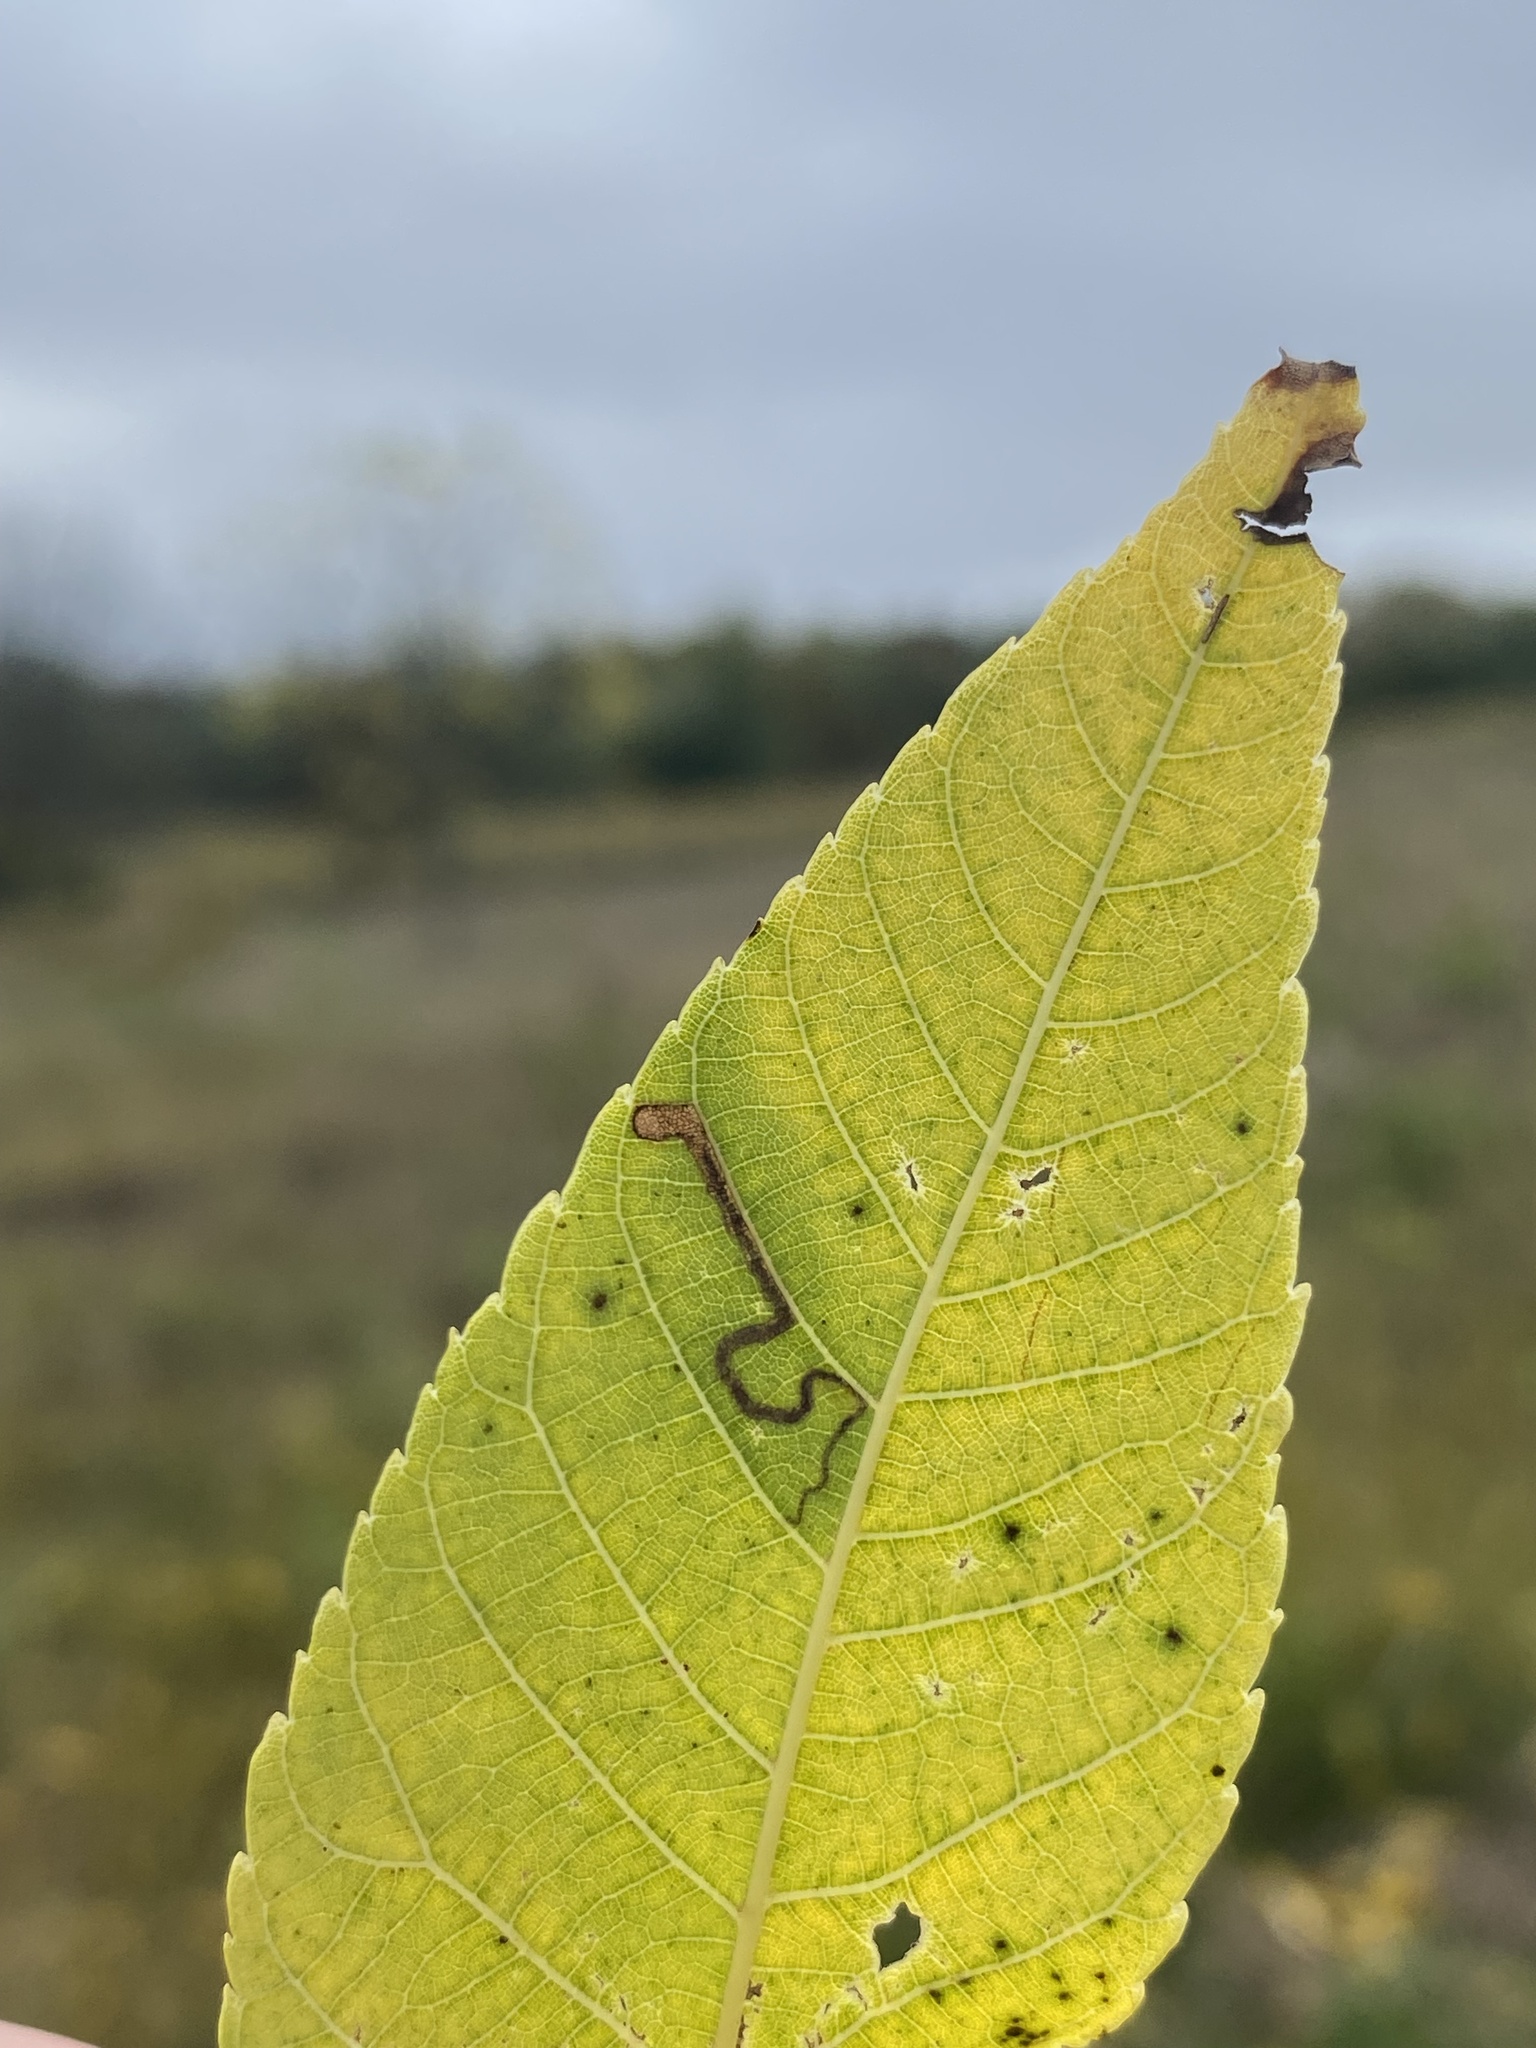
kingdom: Animalia
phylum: Arthropoda
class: Insecta
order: Lepidoptera
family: Nepticulidae
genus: Stigmella
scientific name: Stigmella juglandifoliella
